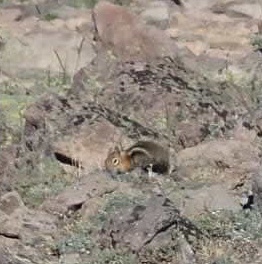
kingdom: Animalia
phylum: Chordata
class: Mammalia
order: Rodentia
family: Sciuridae
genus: Callospermophilus
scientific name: Callospermophilus saturatus
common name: Cascade golden-mantled ground squirrel
